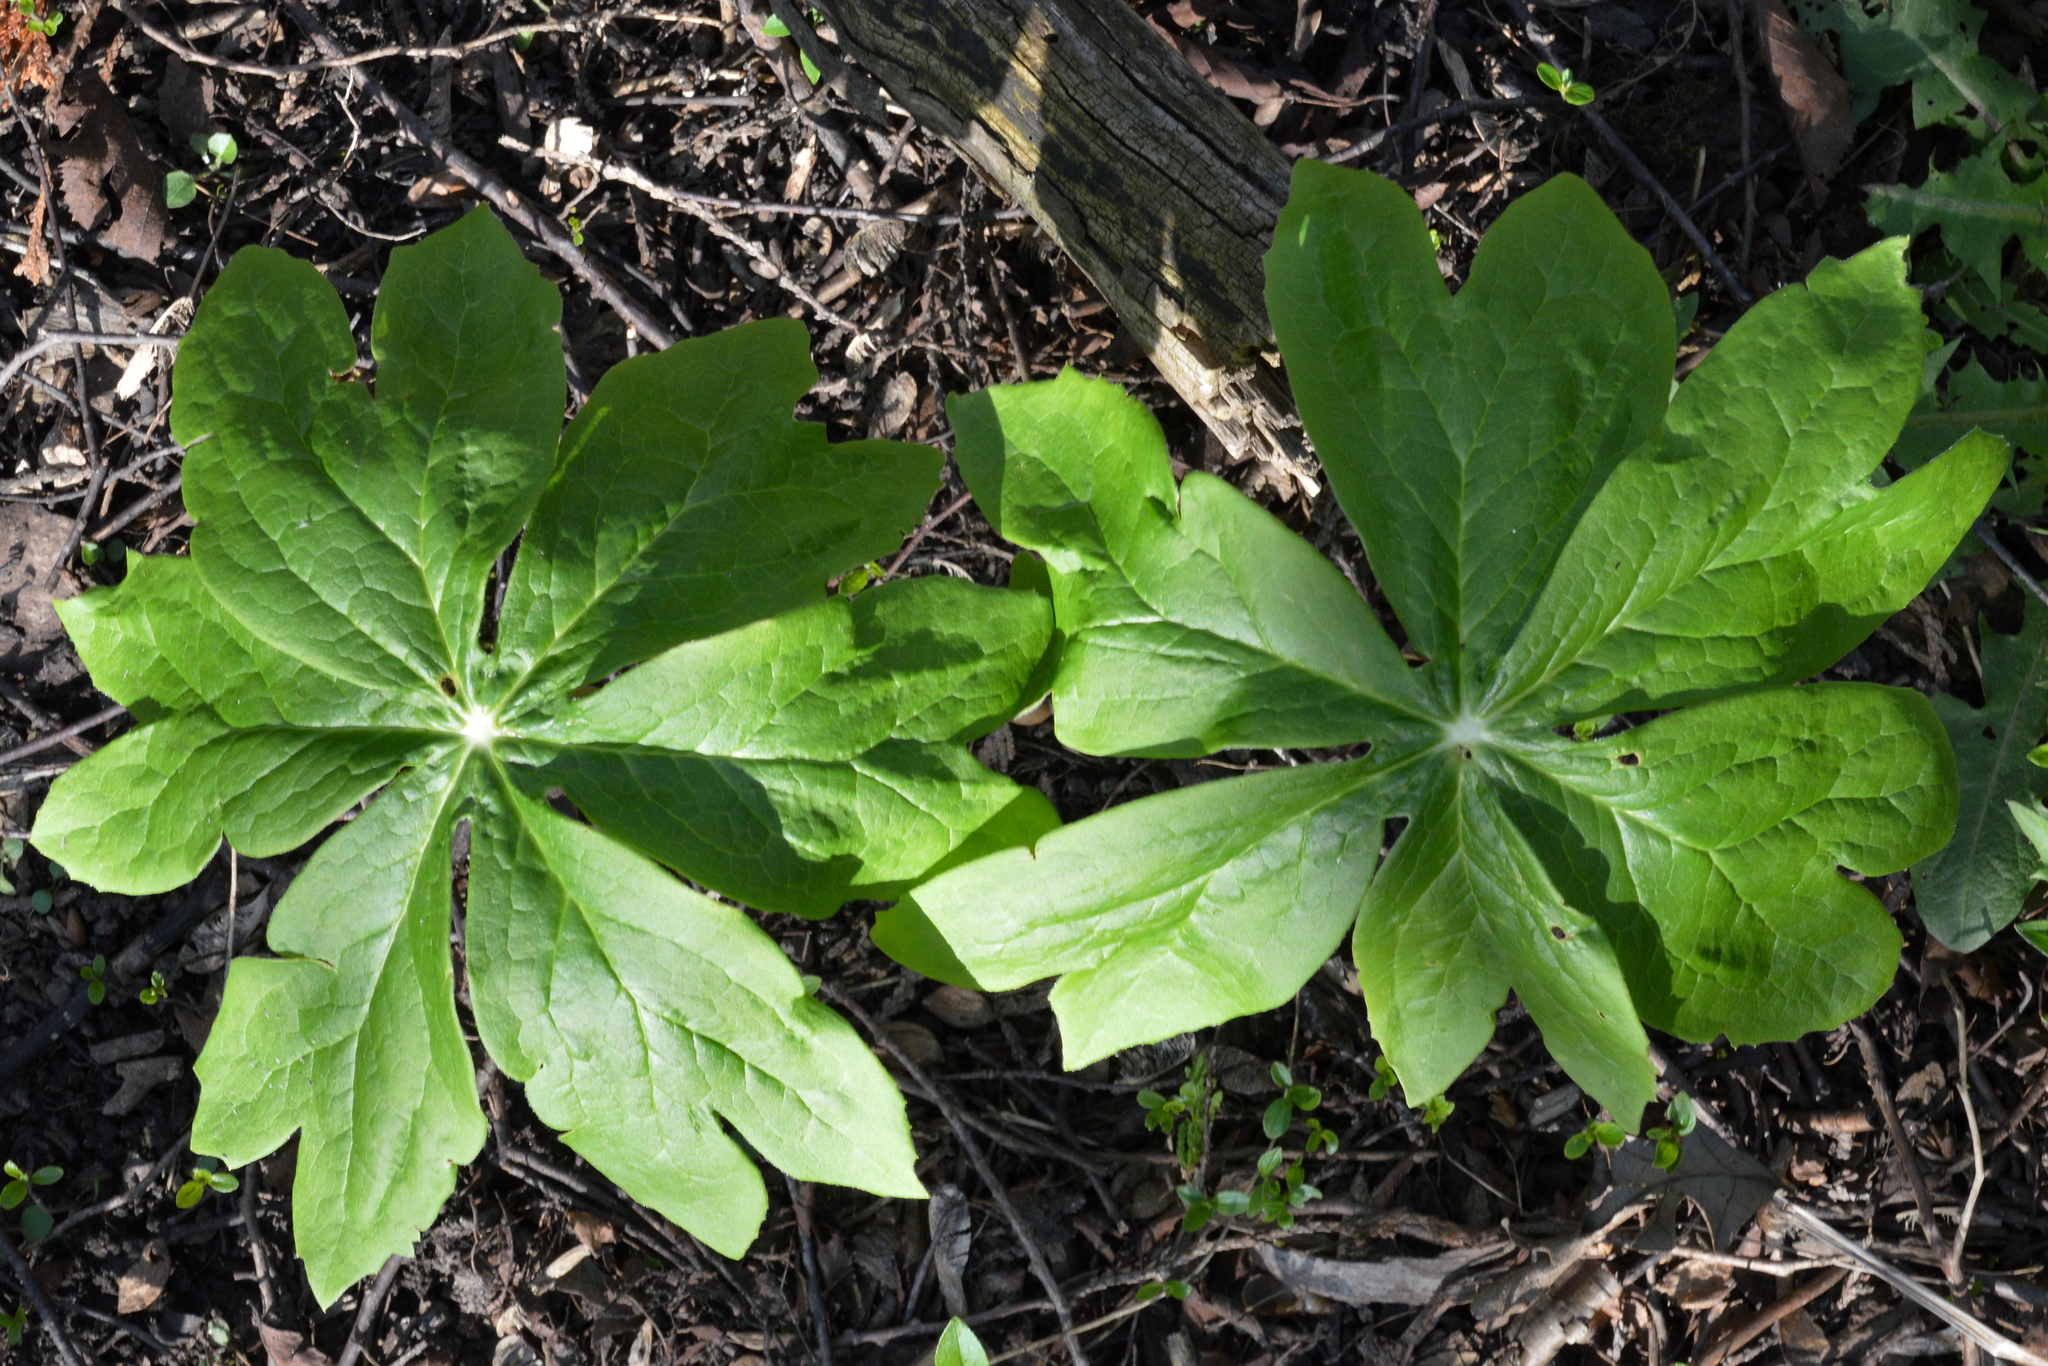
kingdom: Plantae
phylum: Tracheophyta
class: Magnoliopsida
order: Ranunculales
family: Berberidaceae
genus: Podophyllum
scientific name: Podophyllum peltatum
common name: Wild mandrake
